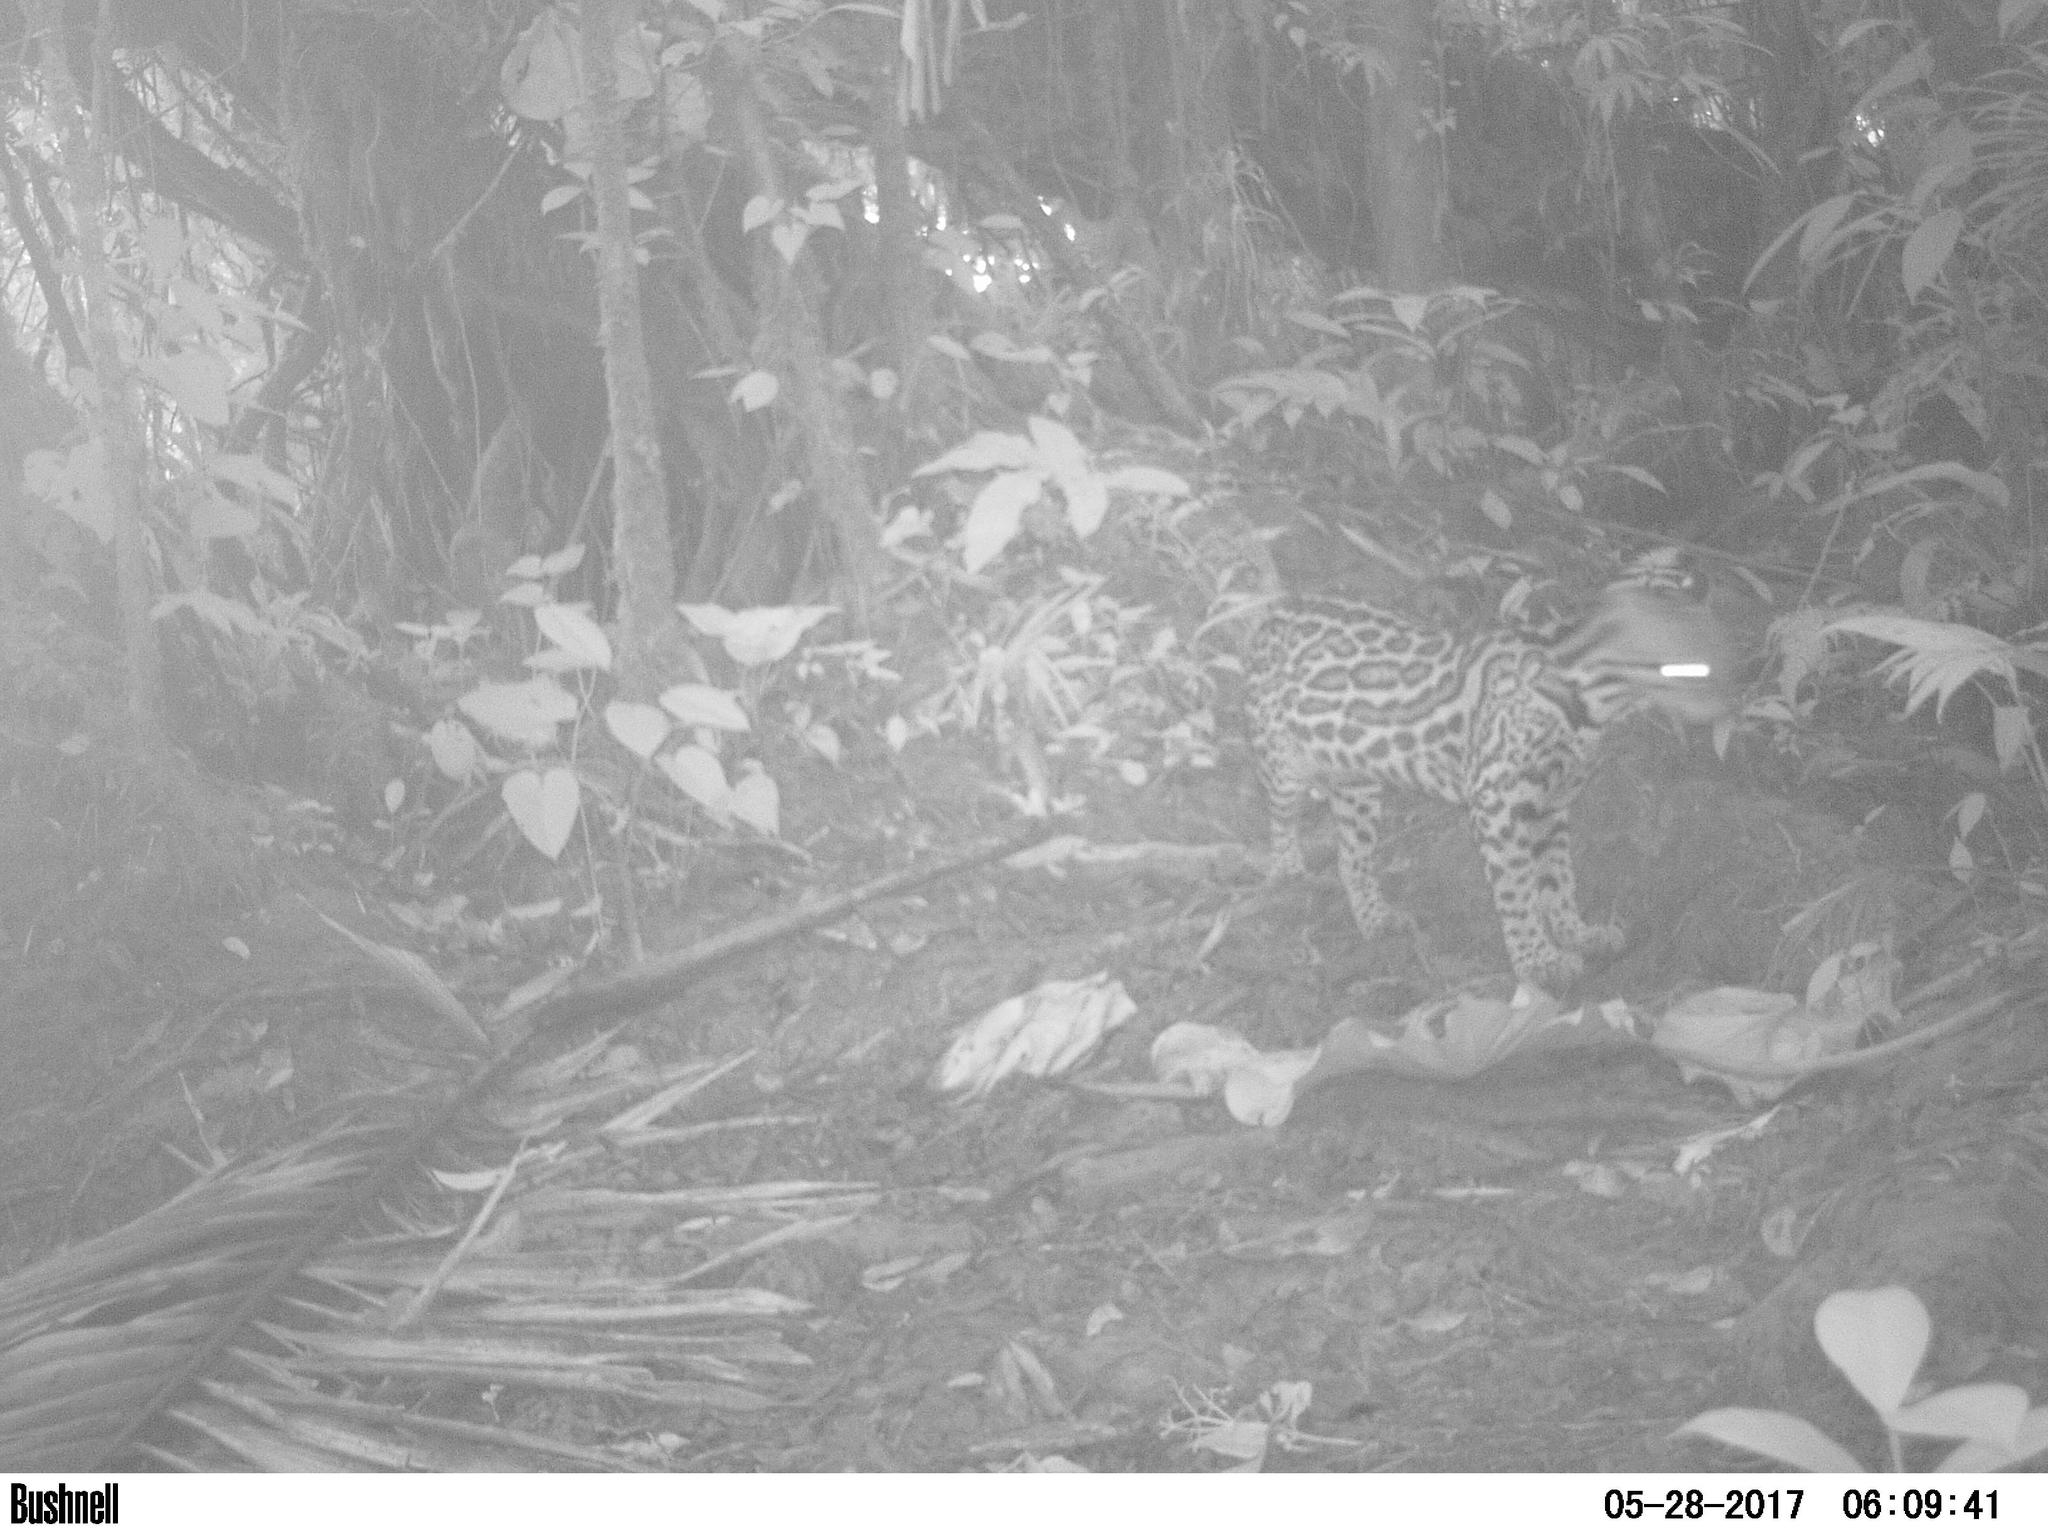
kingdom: Animalia
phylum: Chordata
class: Mammalia
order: Carnivora
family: Felidae
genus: Leopardus
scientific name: Leopardus pardalis
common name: Ocelot
